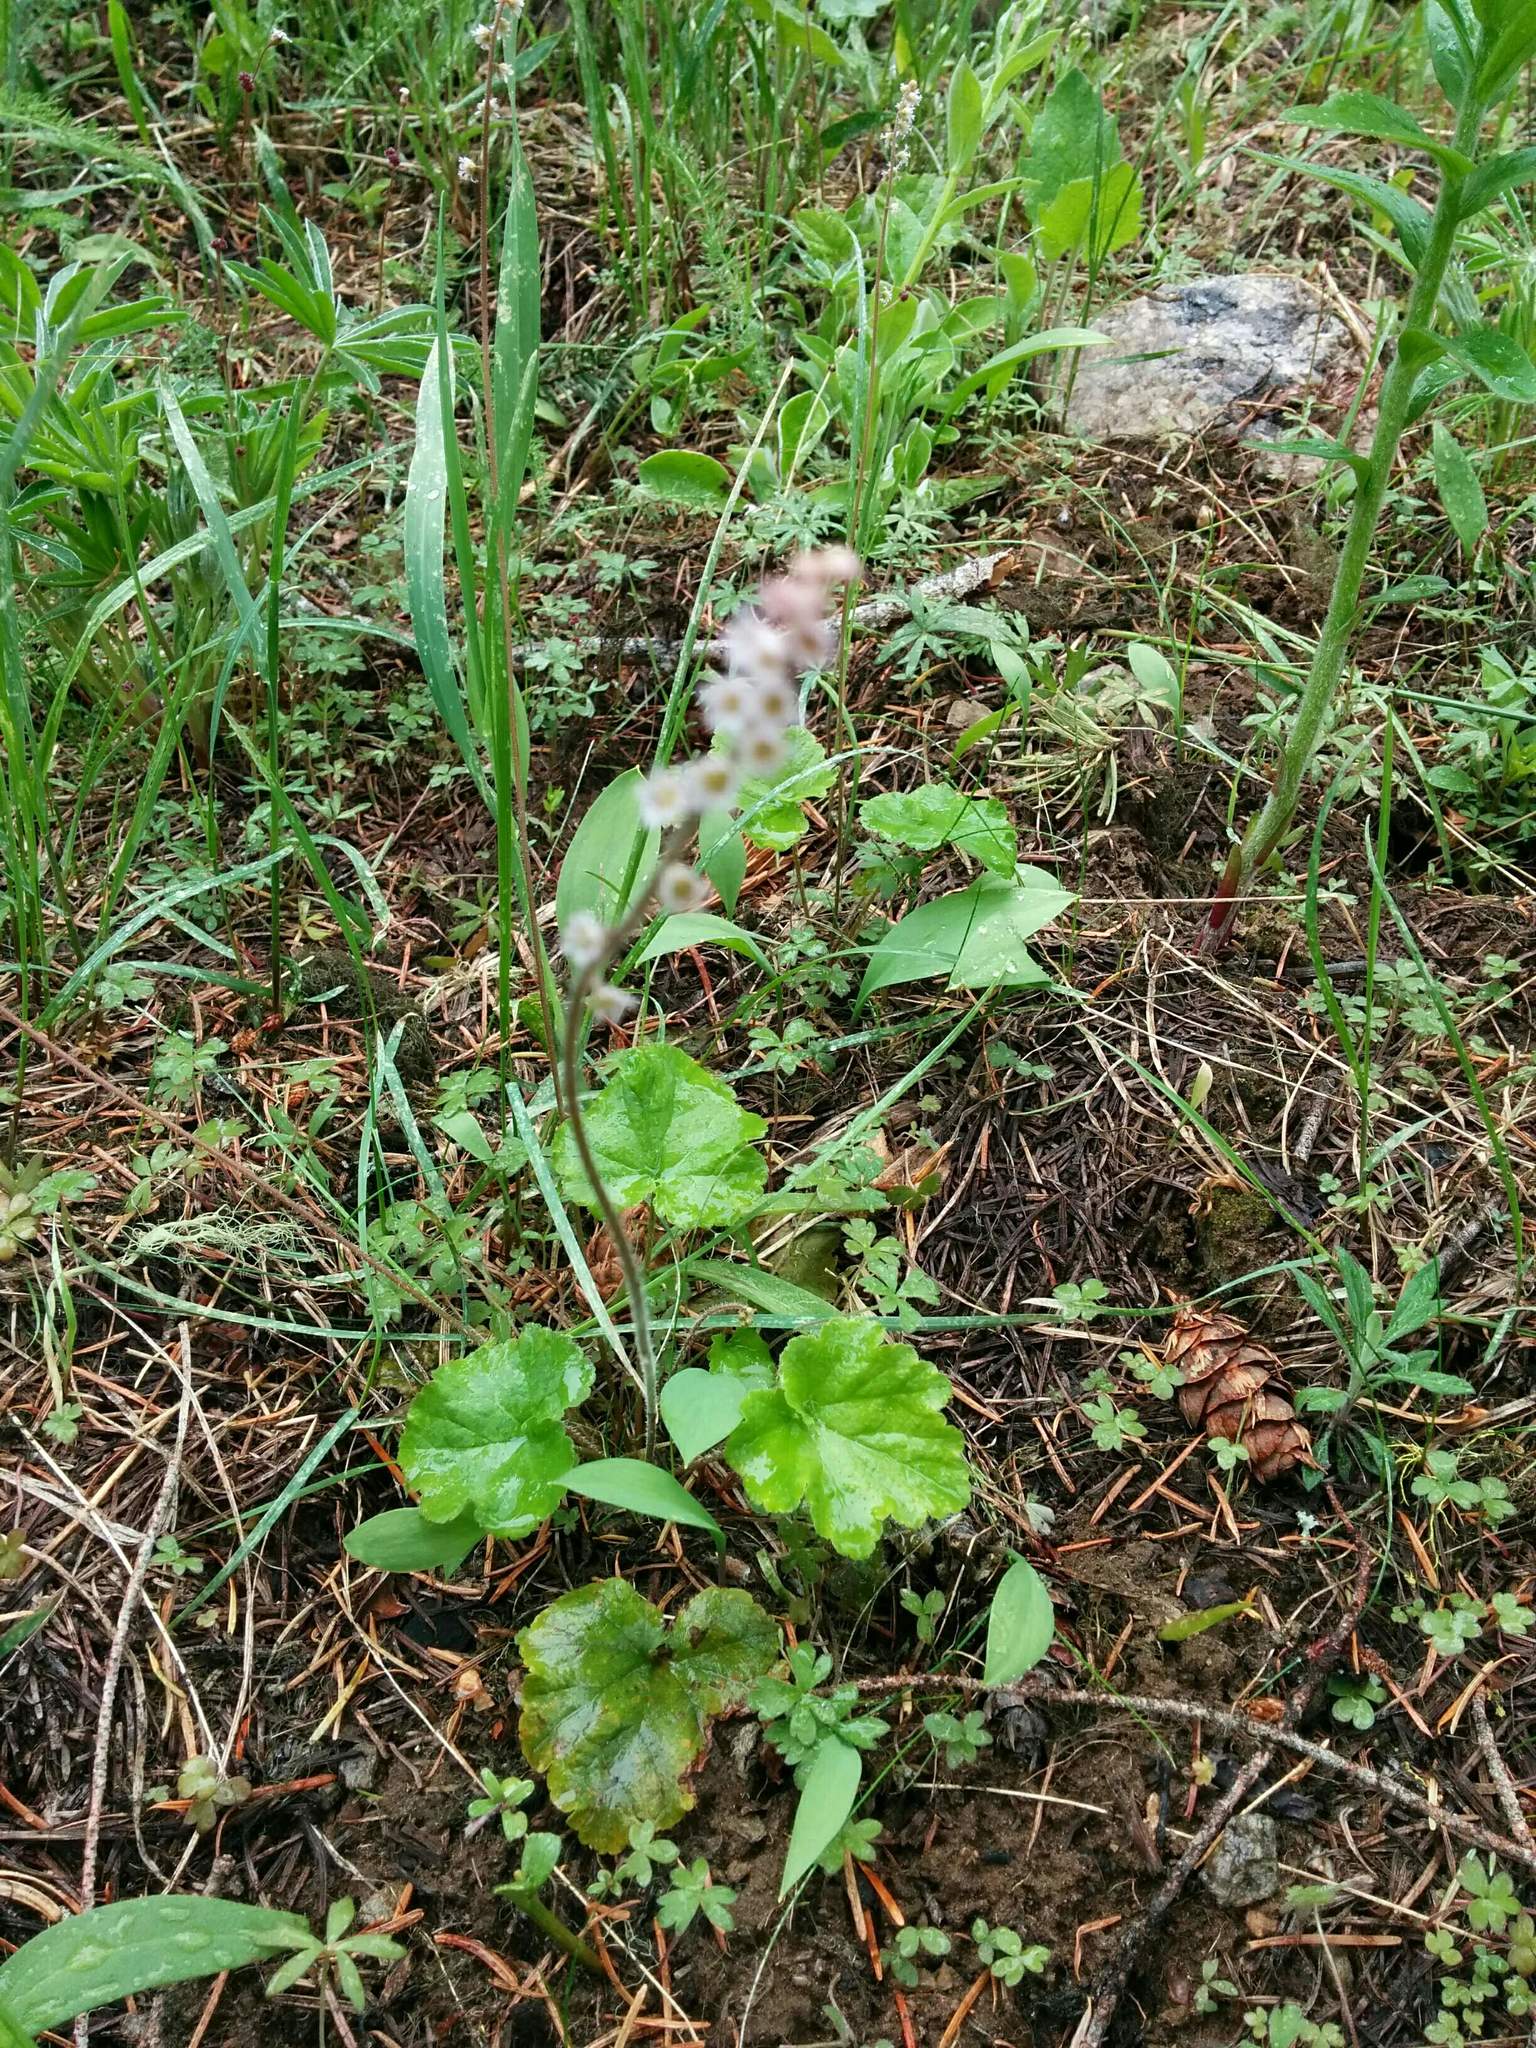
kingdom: Plantae
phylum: Tracheophyta
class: Magnoliopsida
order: Saxifragales
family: Saxifragaceae
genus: Ozomelis
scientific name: Ozomelis trifida
